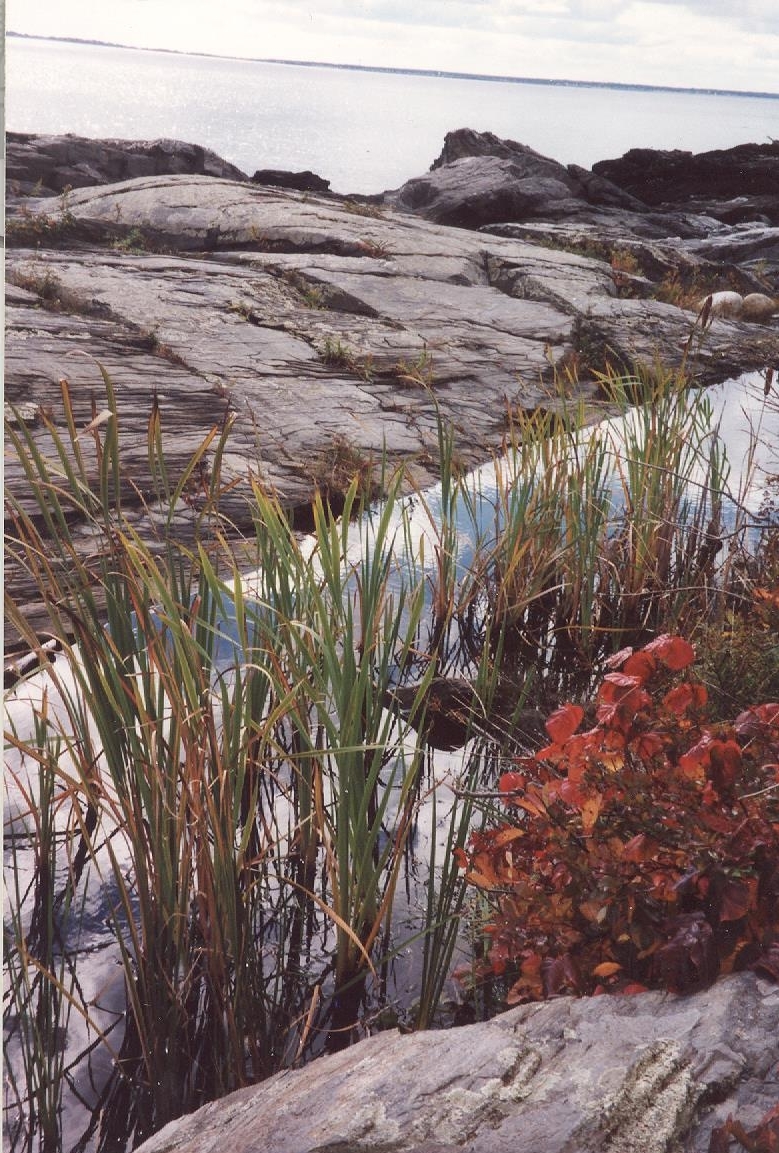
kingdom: Plantae
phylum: Tracheophyta
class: Liliopsida
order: Poales
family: Typhaceae
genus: Typha
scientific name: Typha latifolia
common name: Broadleaf cattail
